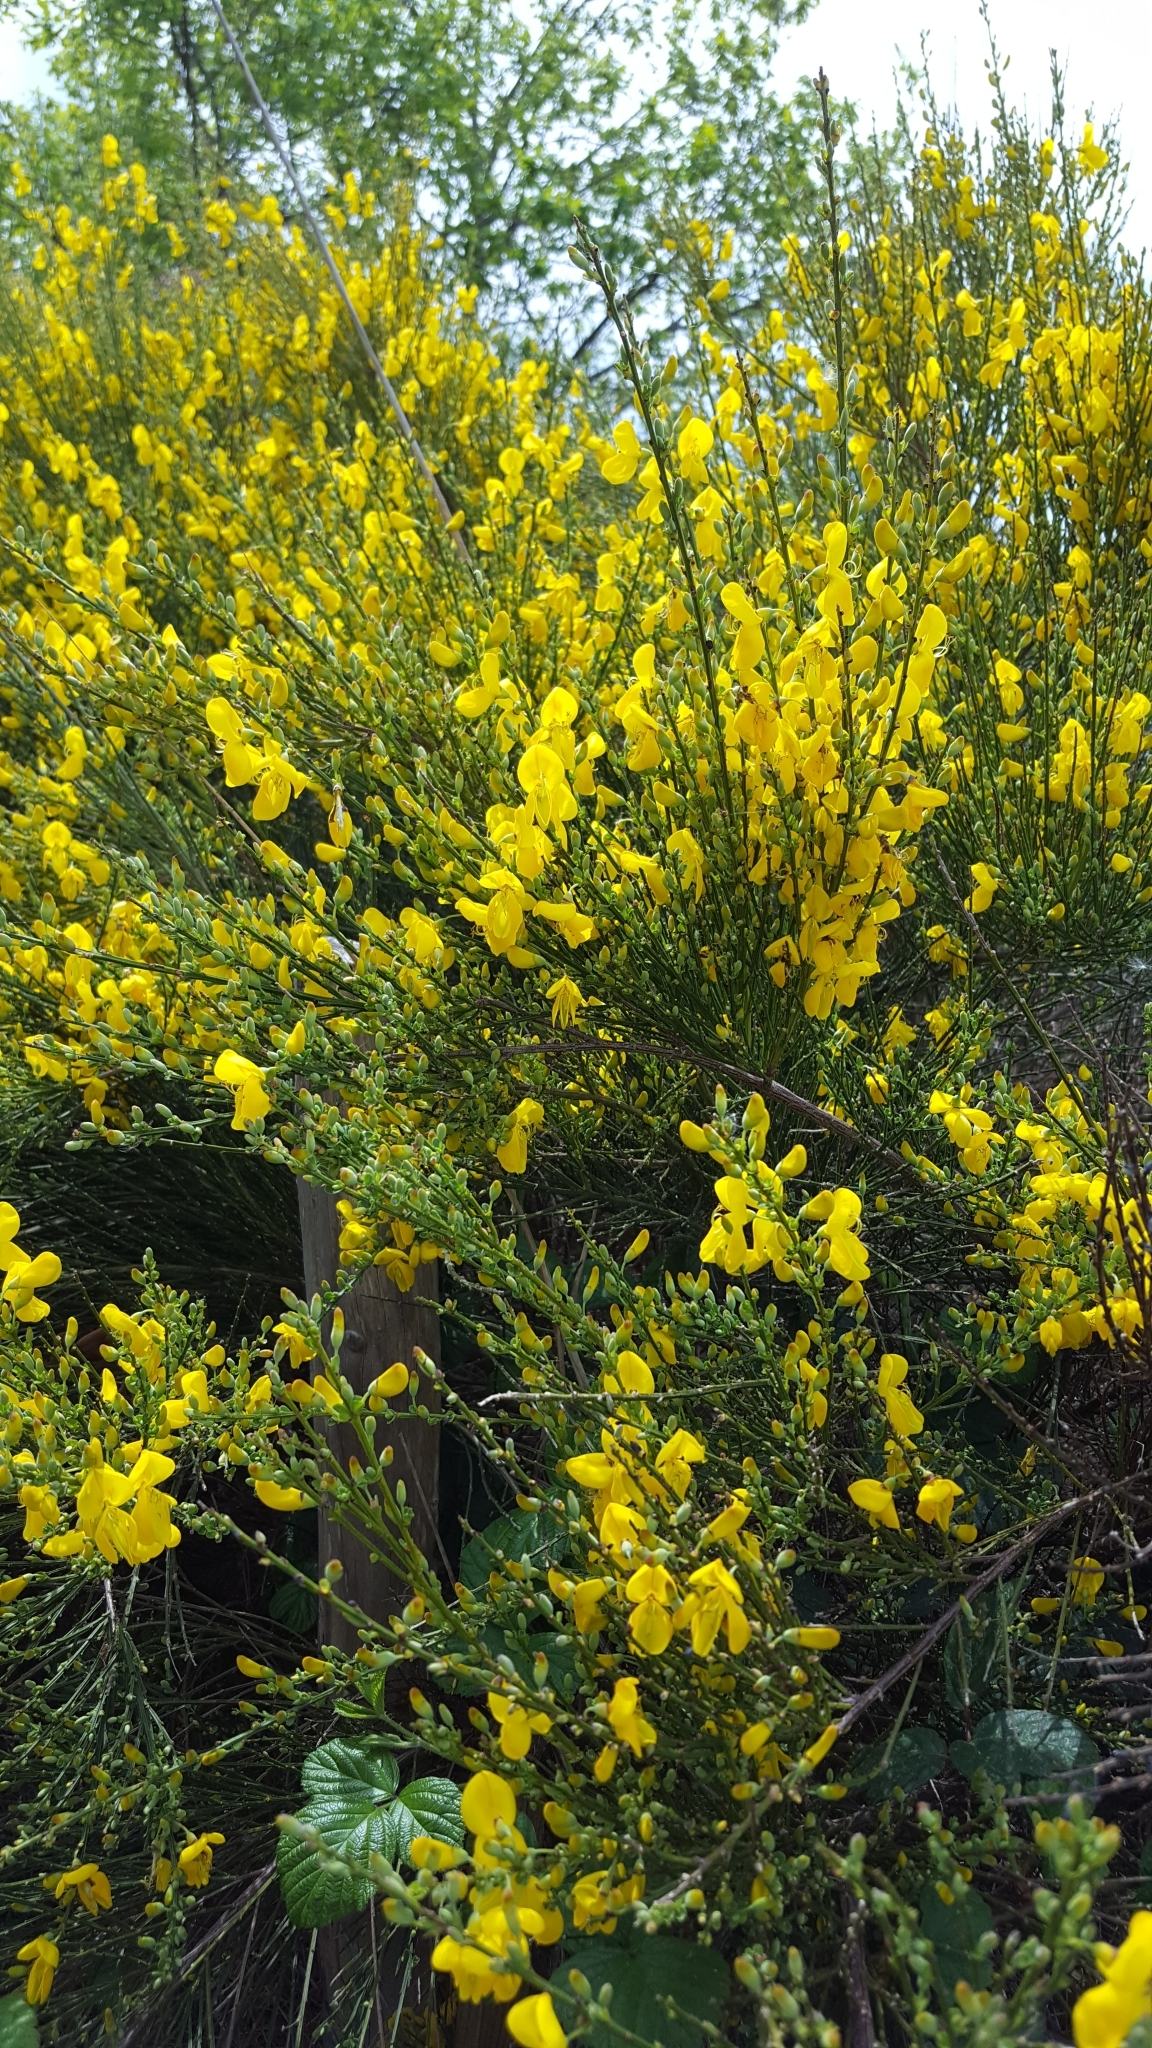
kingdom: Plantae
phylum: Tracheophyta
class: Magnoliopsida
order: Fabales
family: Fabaceae
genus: Cytisus
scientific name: Cytisus scoparius
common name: Scotch broom
